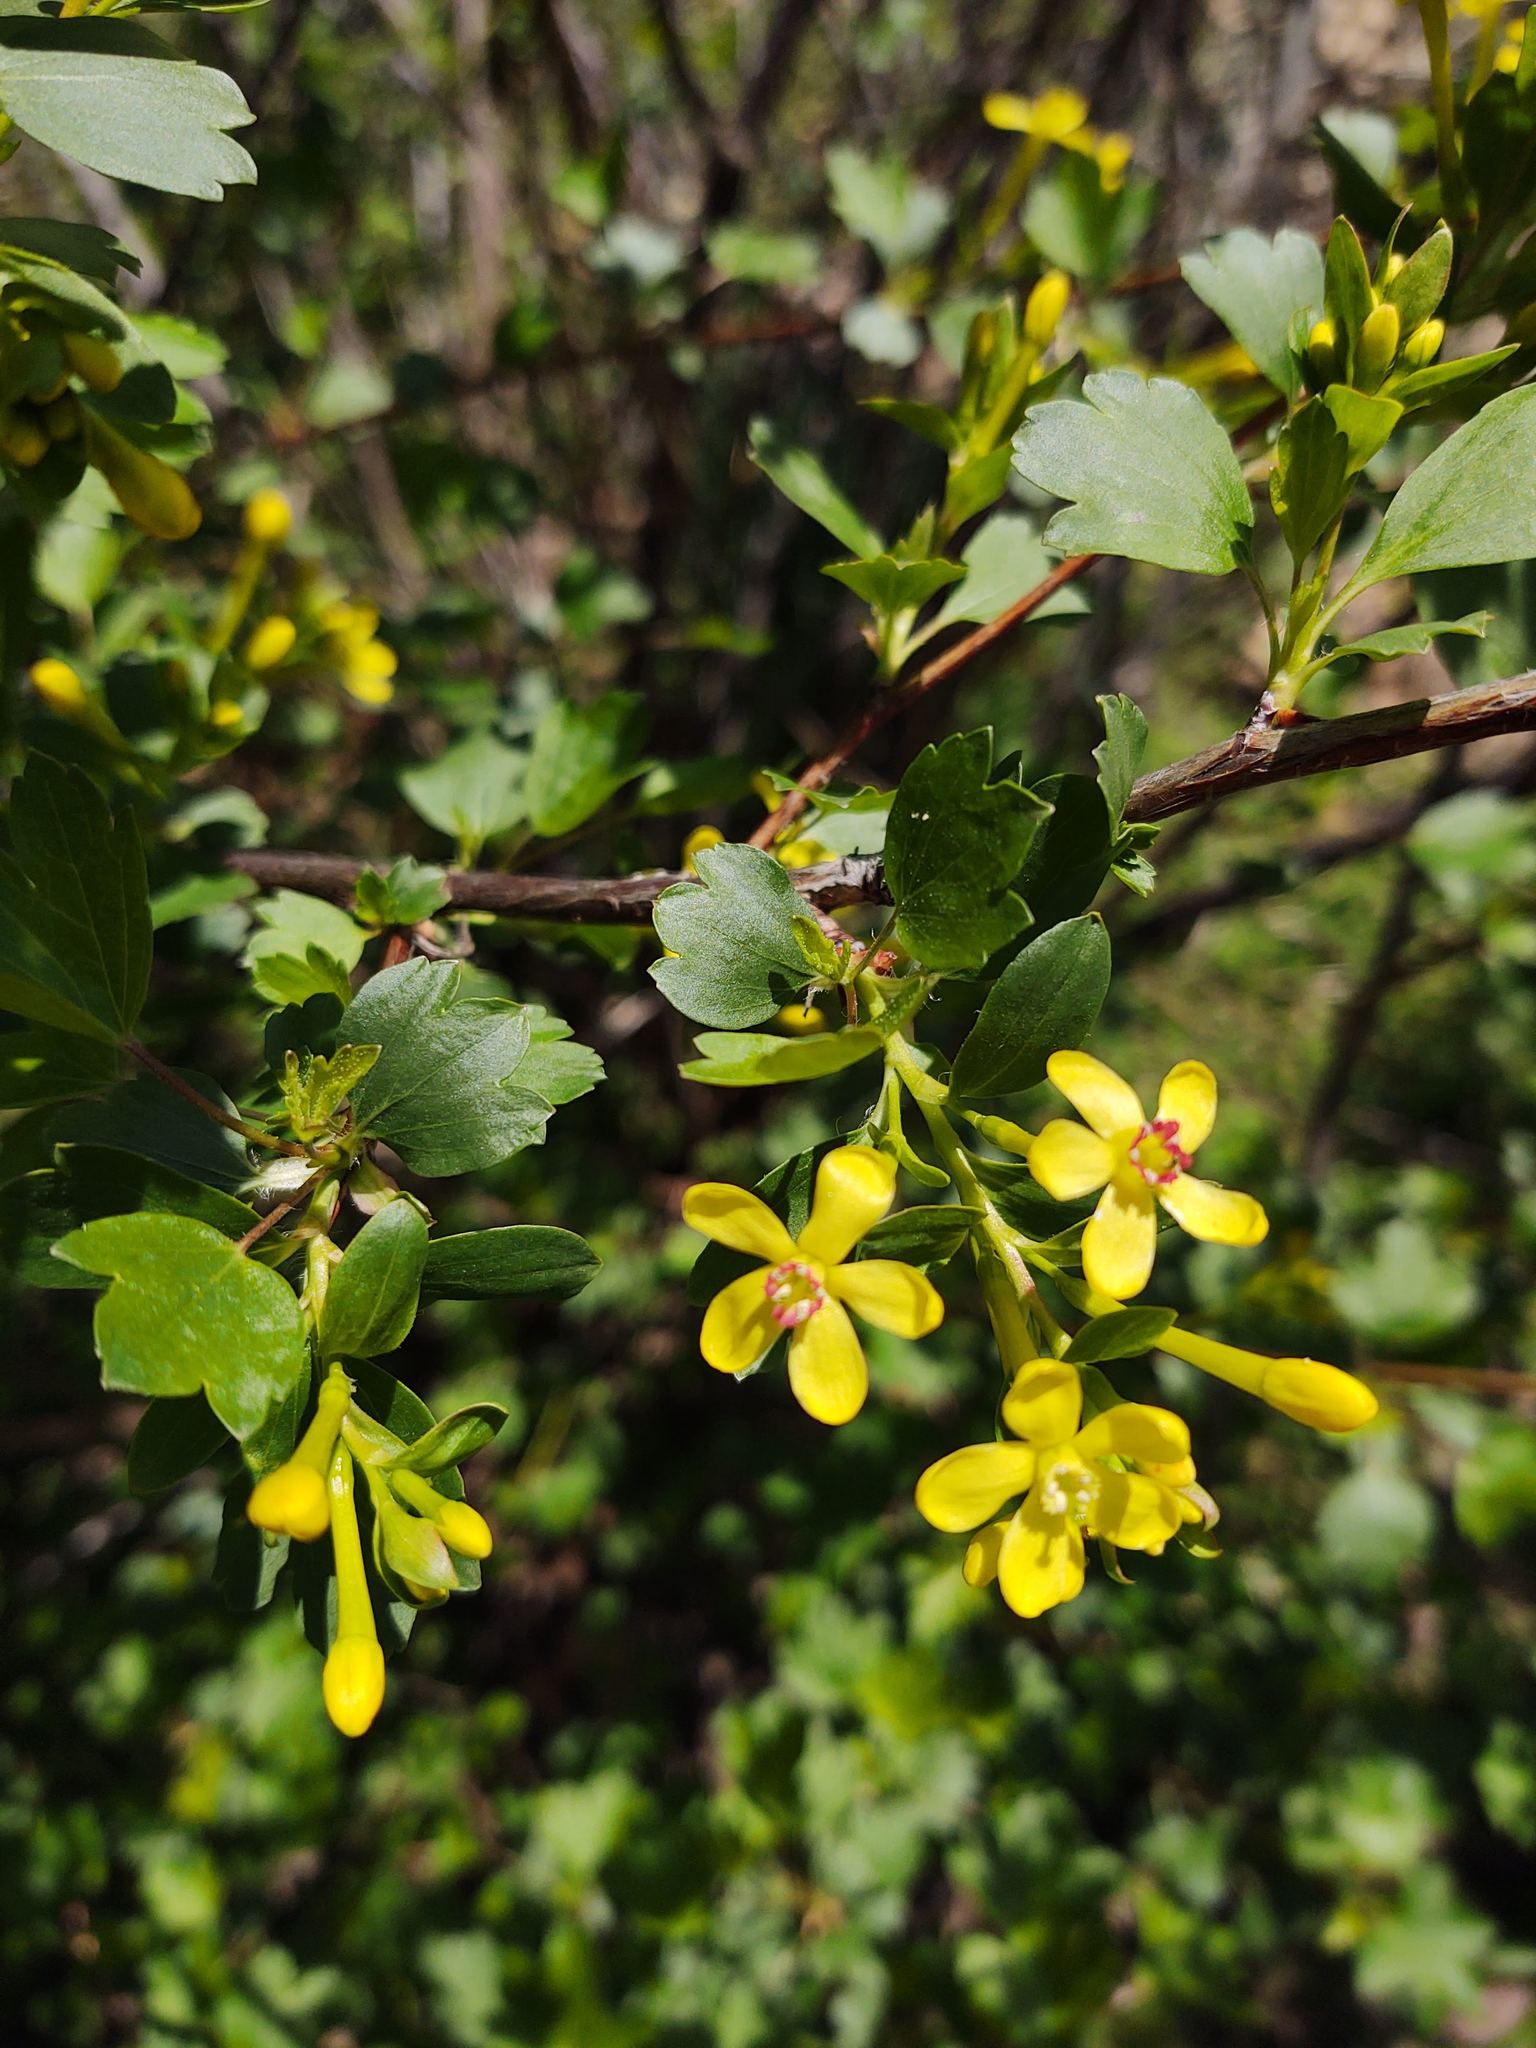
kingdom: Plantae
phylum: Tracheophyta
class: Magnoliopsida
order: Saxifragales
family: Grossulariaceae
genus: Ribes
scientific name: Ribes aureum
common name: Golden currant
